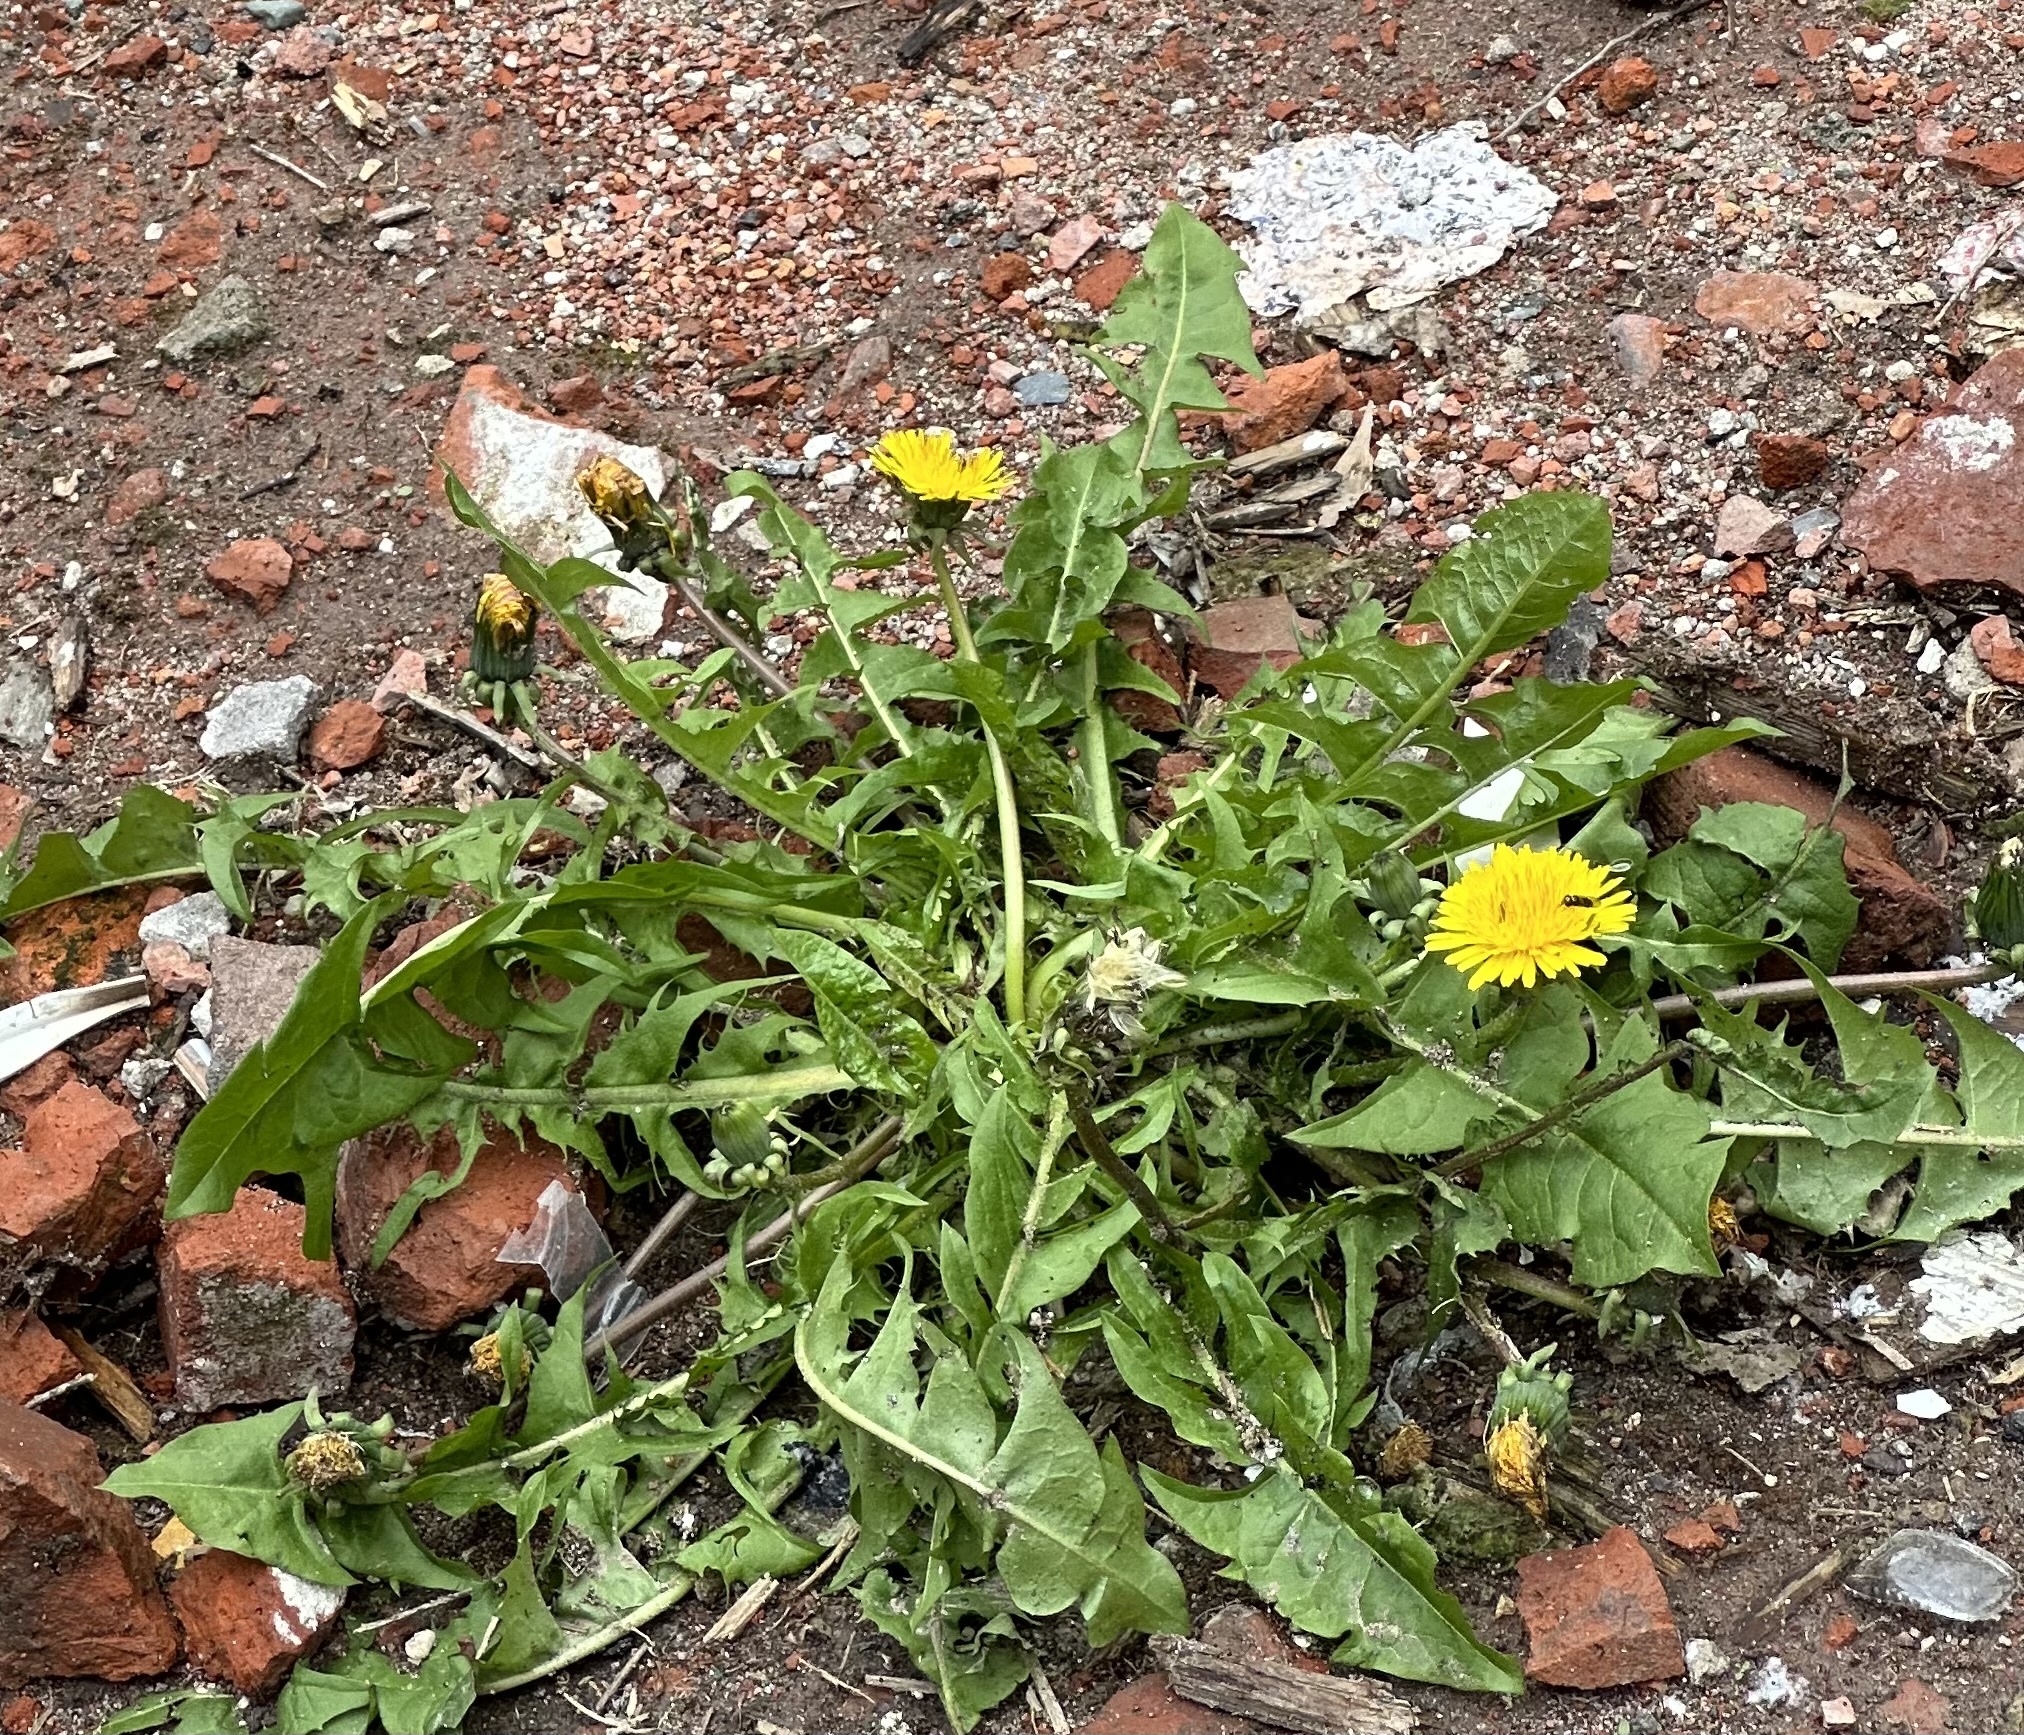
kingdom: Plantae
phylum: Tracheophyta
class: Magnoliopsida
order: Asterales
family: Asteraceae
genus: Taraxacum
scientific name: Taraxacum officinale
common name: Common dandelion
